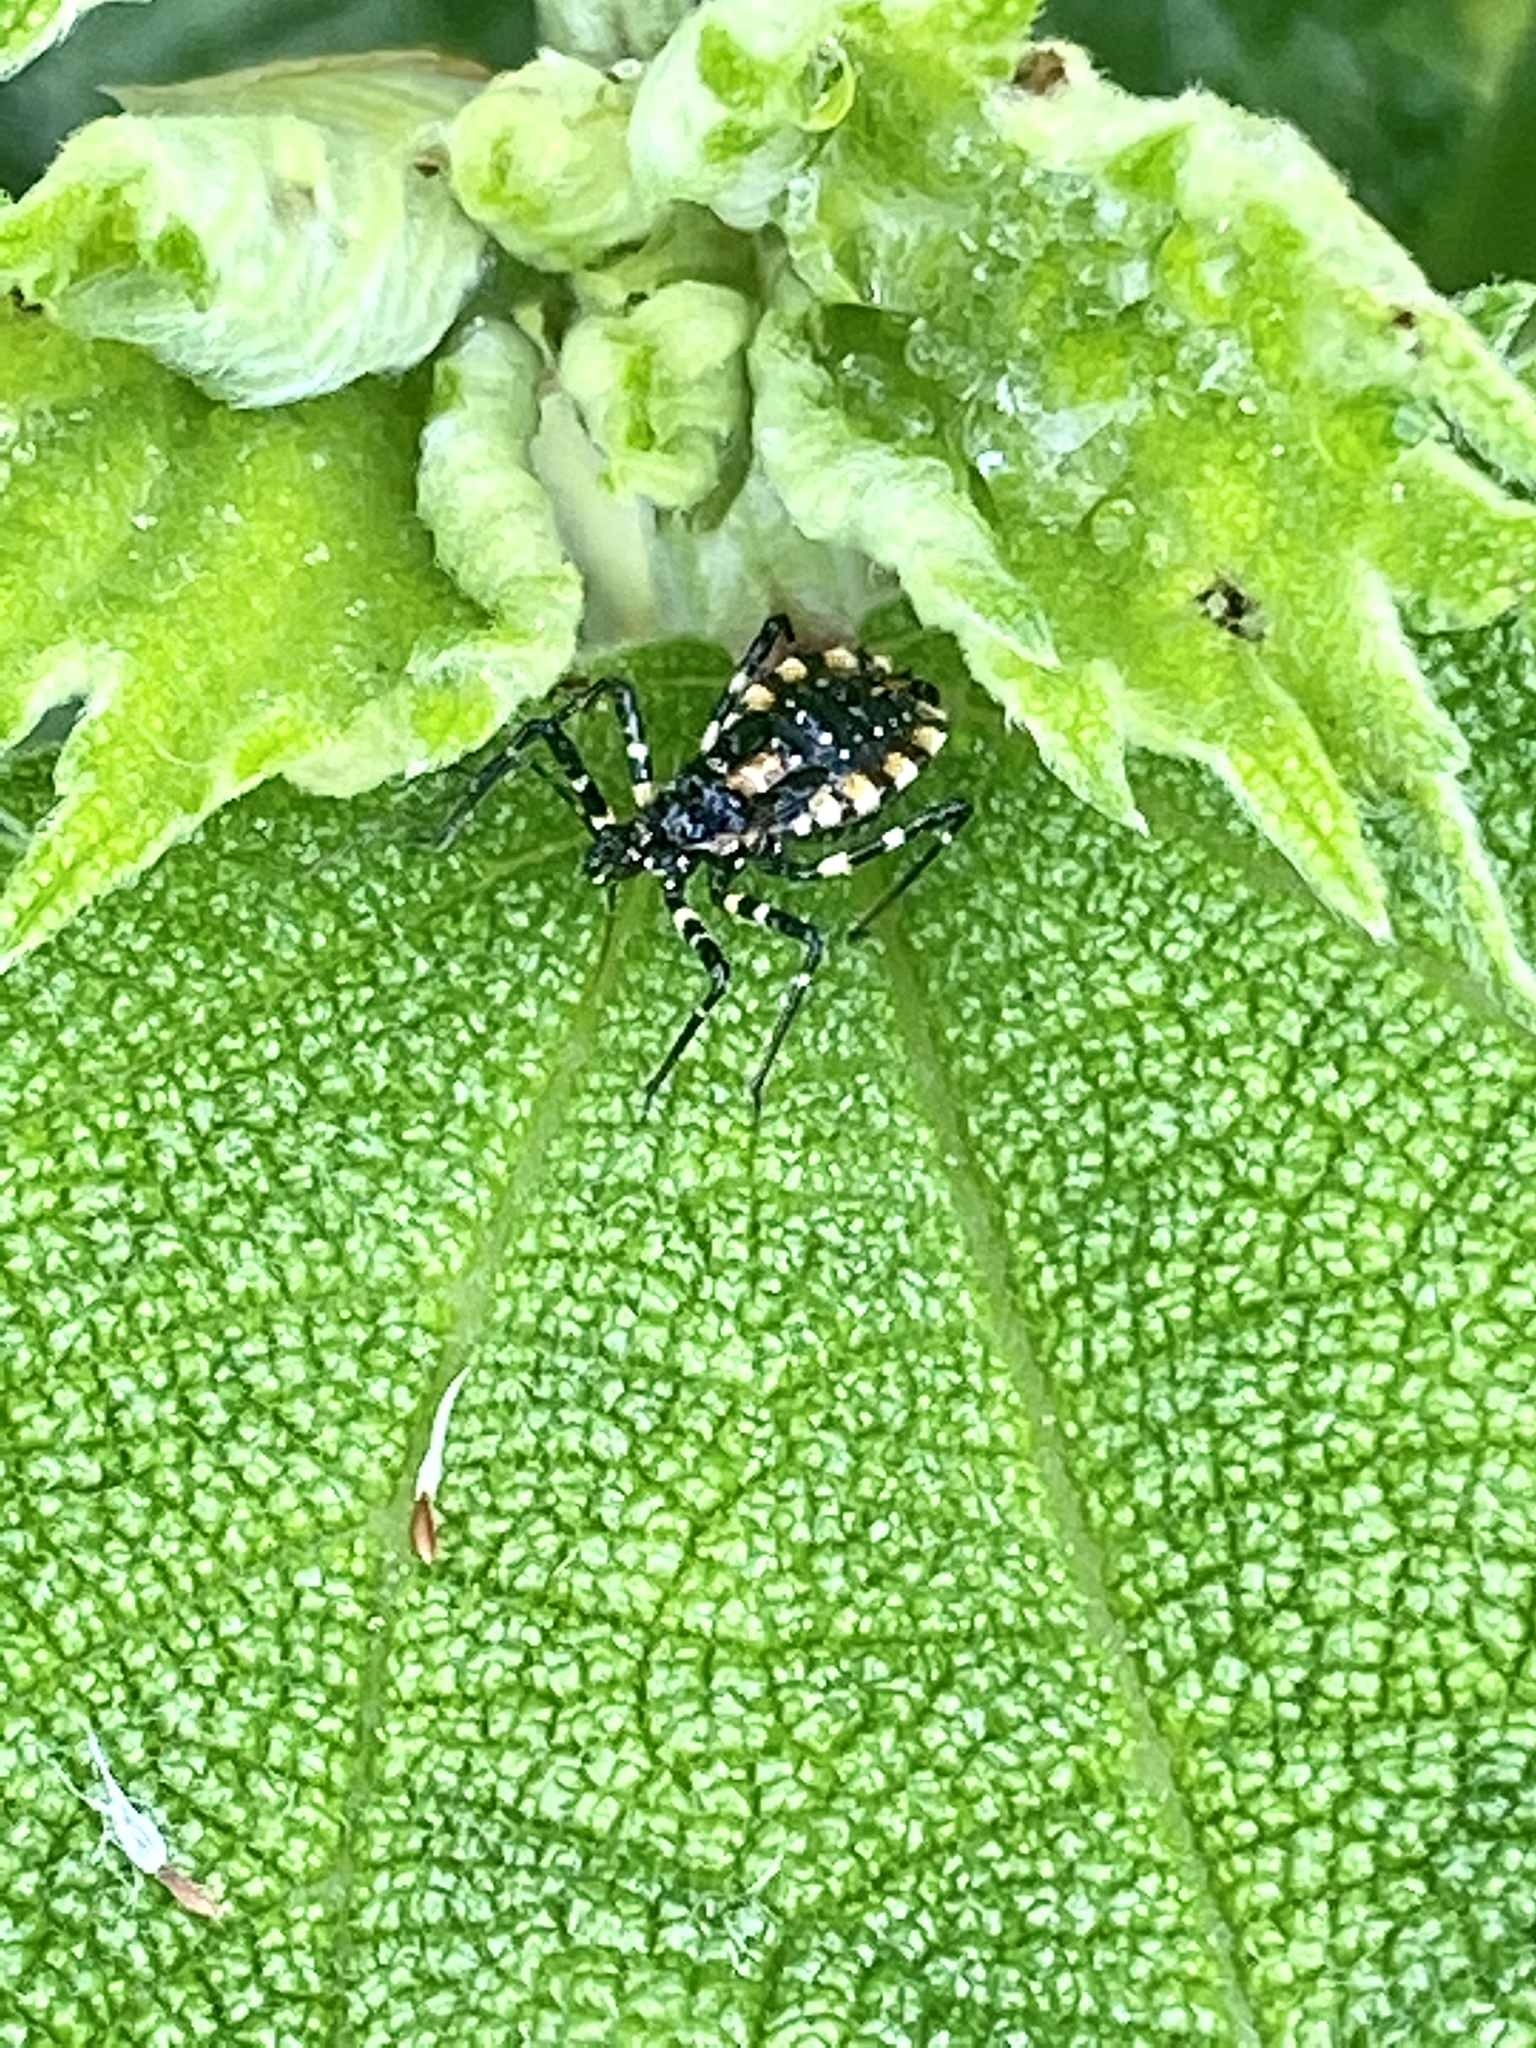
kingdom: Animalia
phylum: Arthropoda
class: Insecta
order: Hemiptera
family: Reduviidae
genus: Sphedanolestes
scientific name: Sphedanolestes impressicollis
